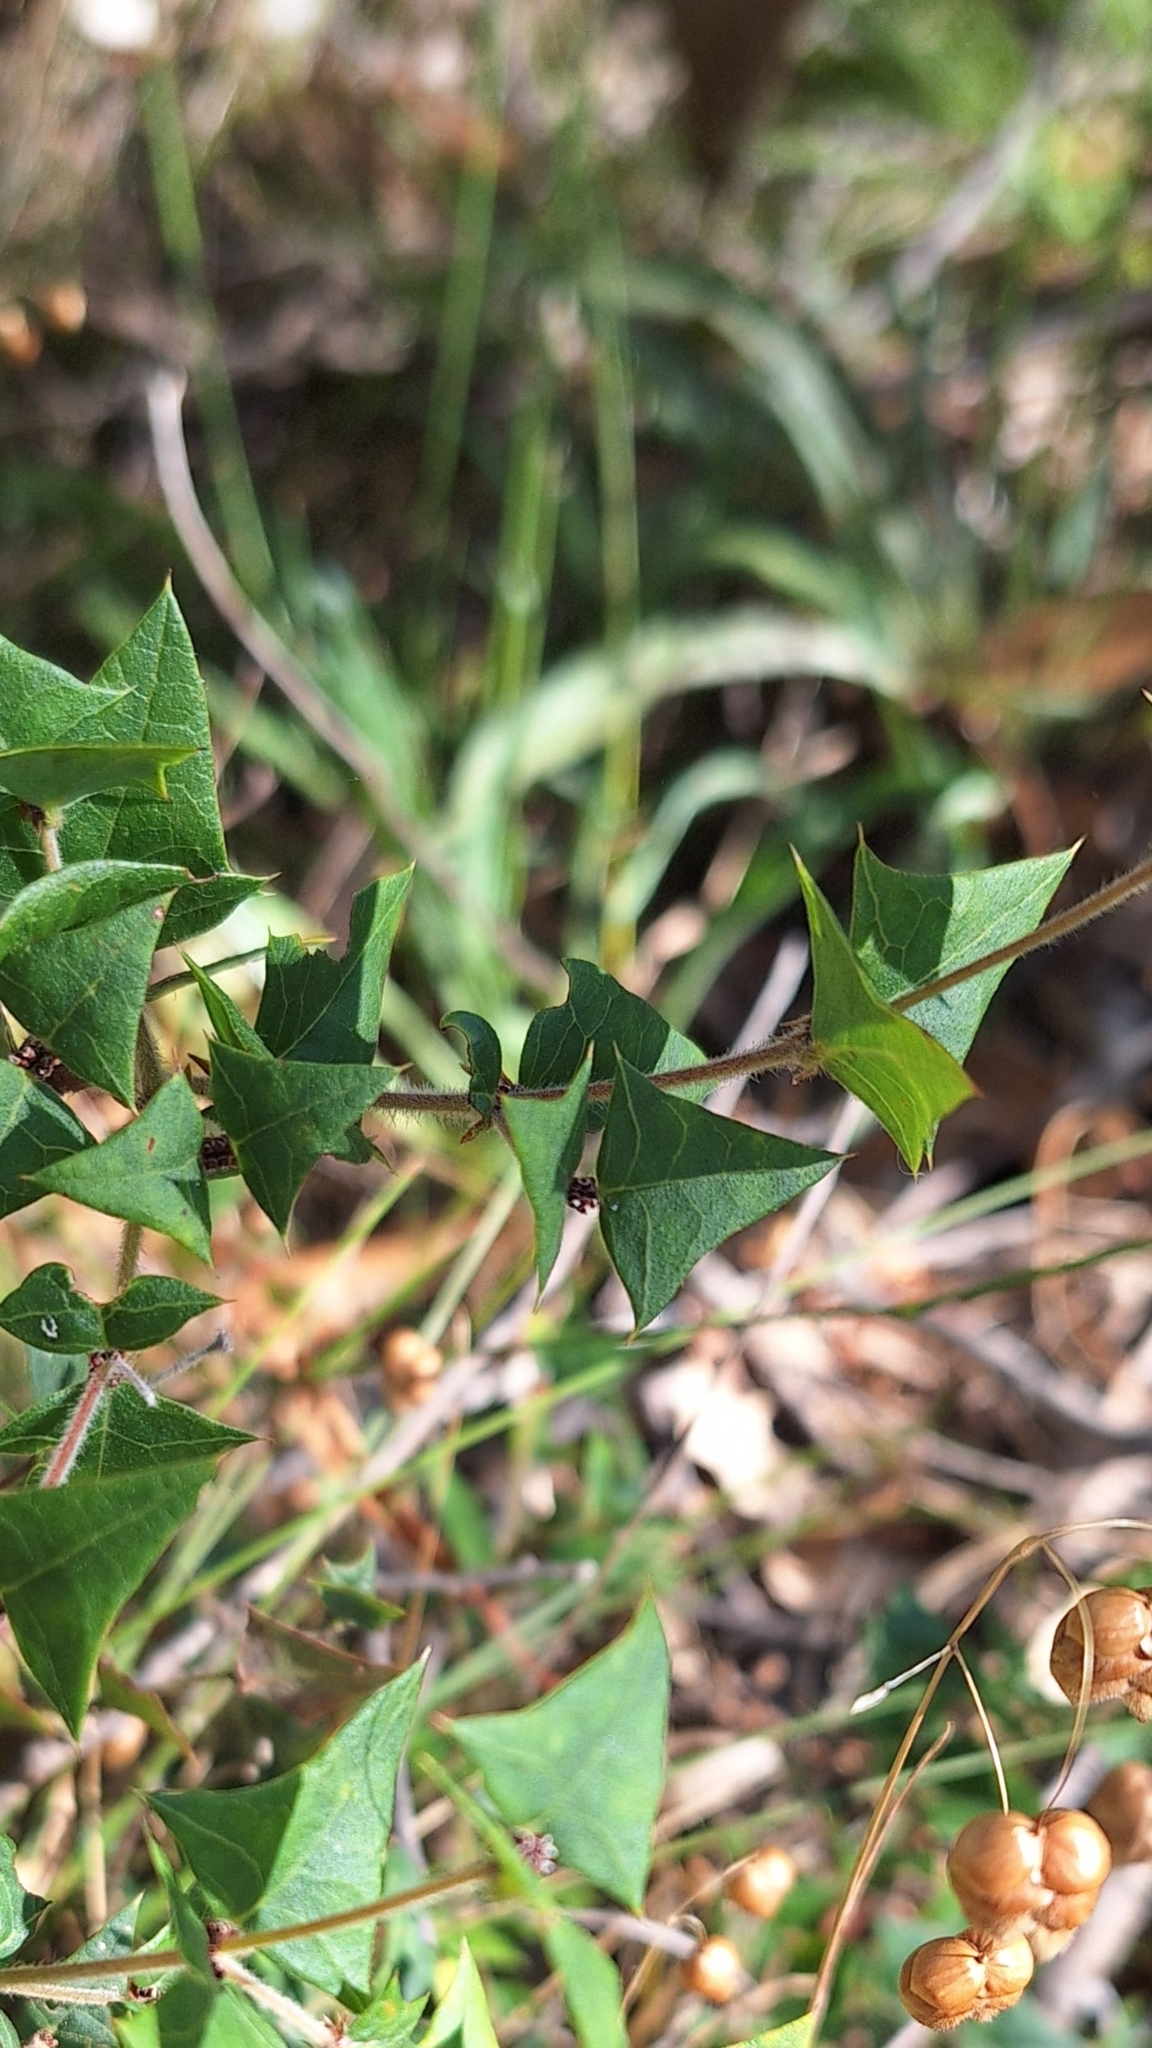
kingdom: Plantae
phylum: Tracheophyta
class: Magnoliopsida
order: Fabales
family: Fabaceae
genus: Platylobium
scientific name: Platylobium obtusangulum
